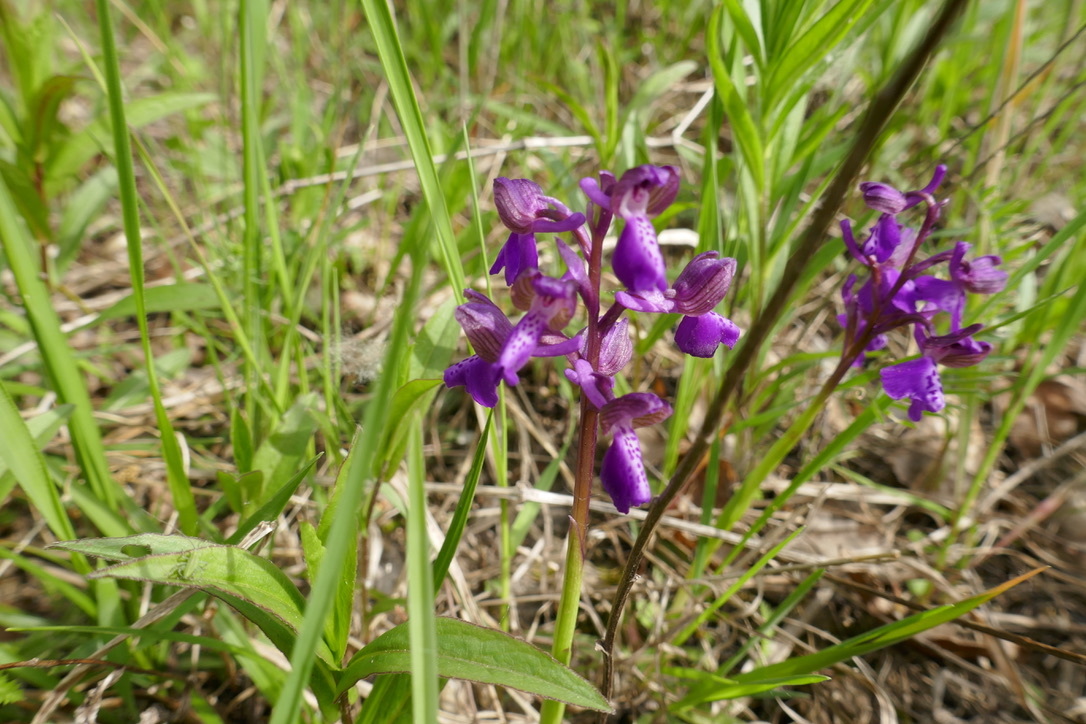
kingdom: Plantae
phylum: Tracheophyta
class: Liliopsida
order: Asparagales
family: Orchidaceae
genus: Anacamptis
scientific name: Anacamptis morio
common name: Green-winged orchid
